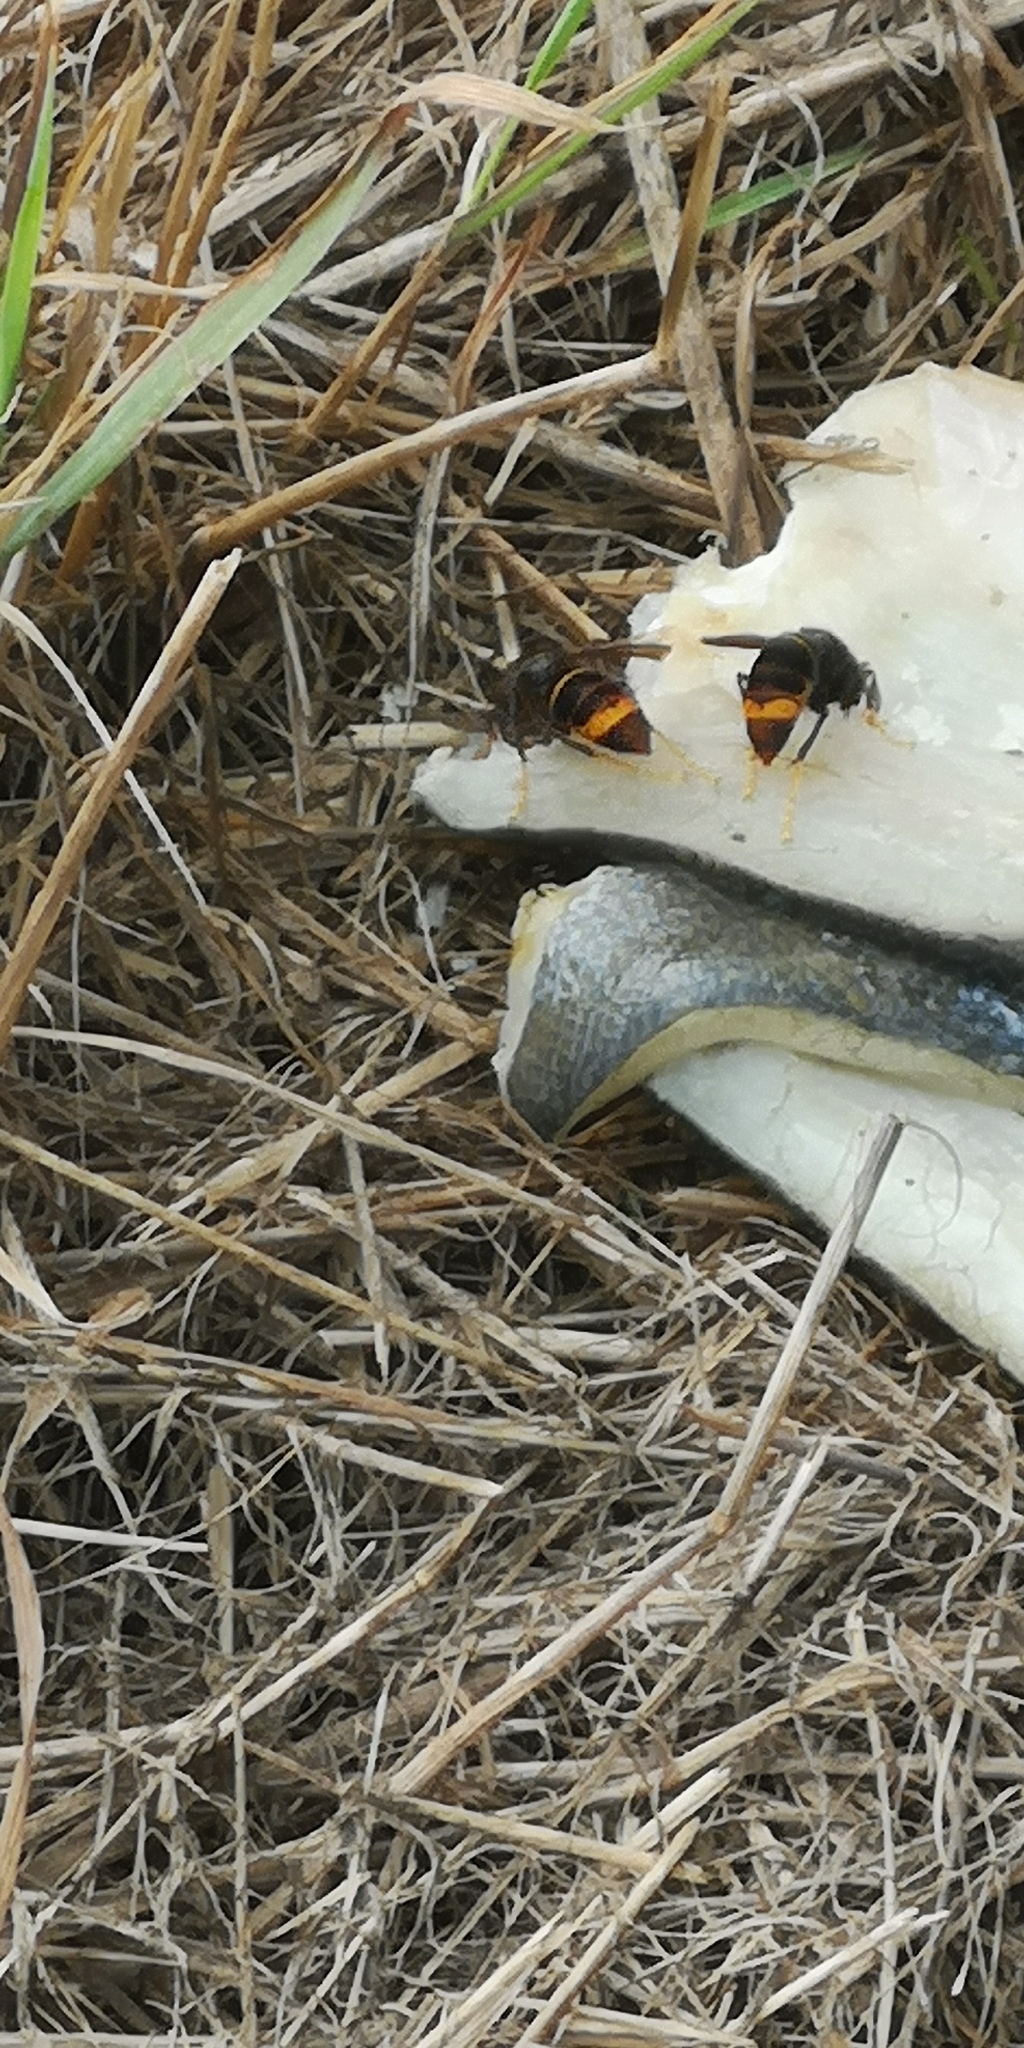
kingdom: Animalia
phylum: Arthropoda
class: Insecta
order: Hymenoptera
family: Vespidae
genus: Vespa
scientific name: Vespa velutina
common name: Asian hornet
